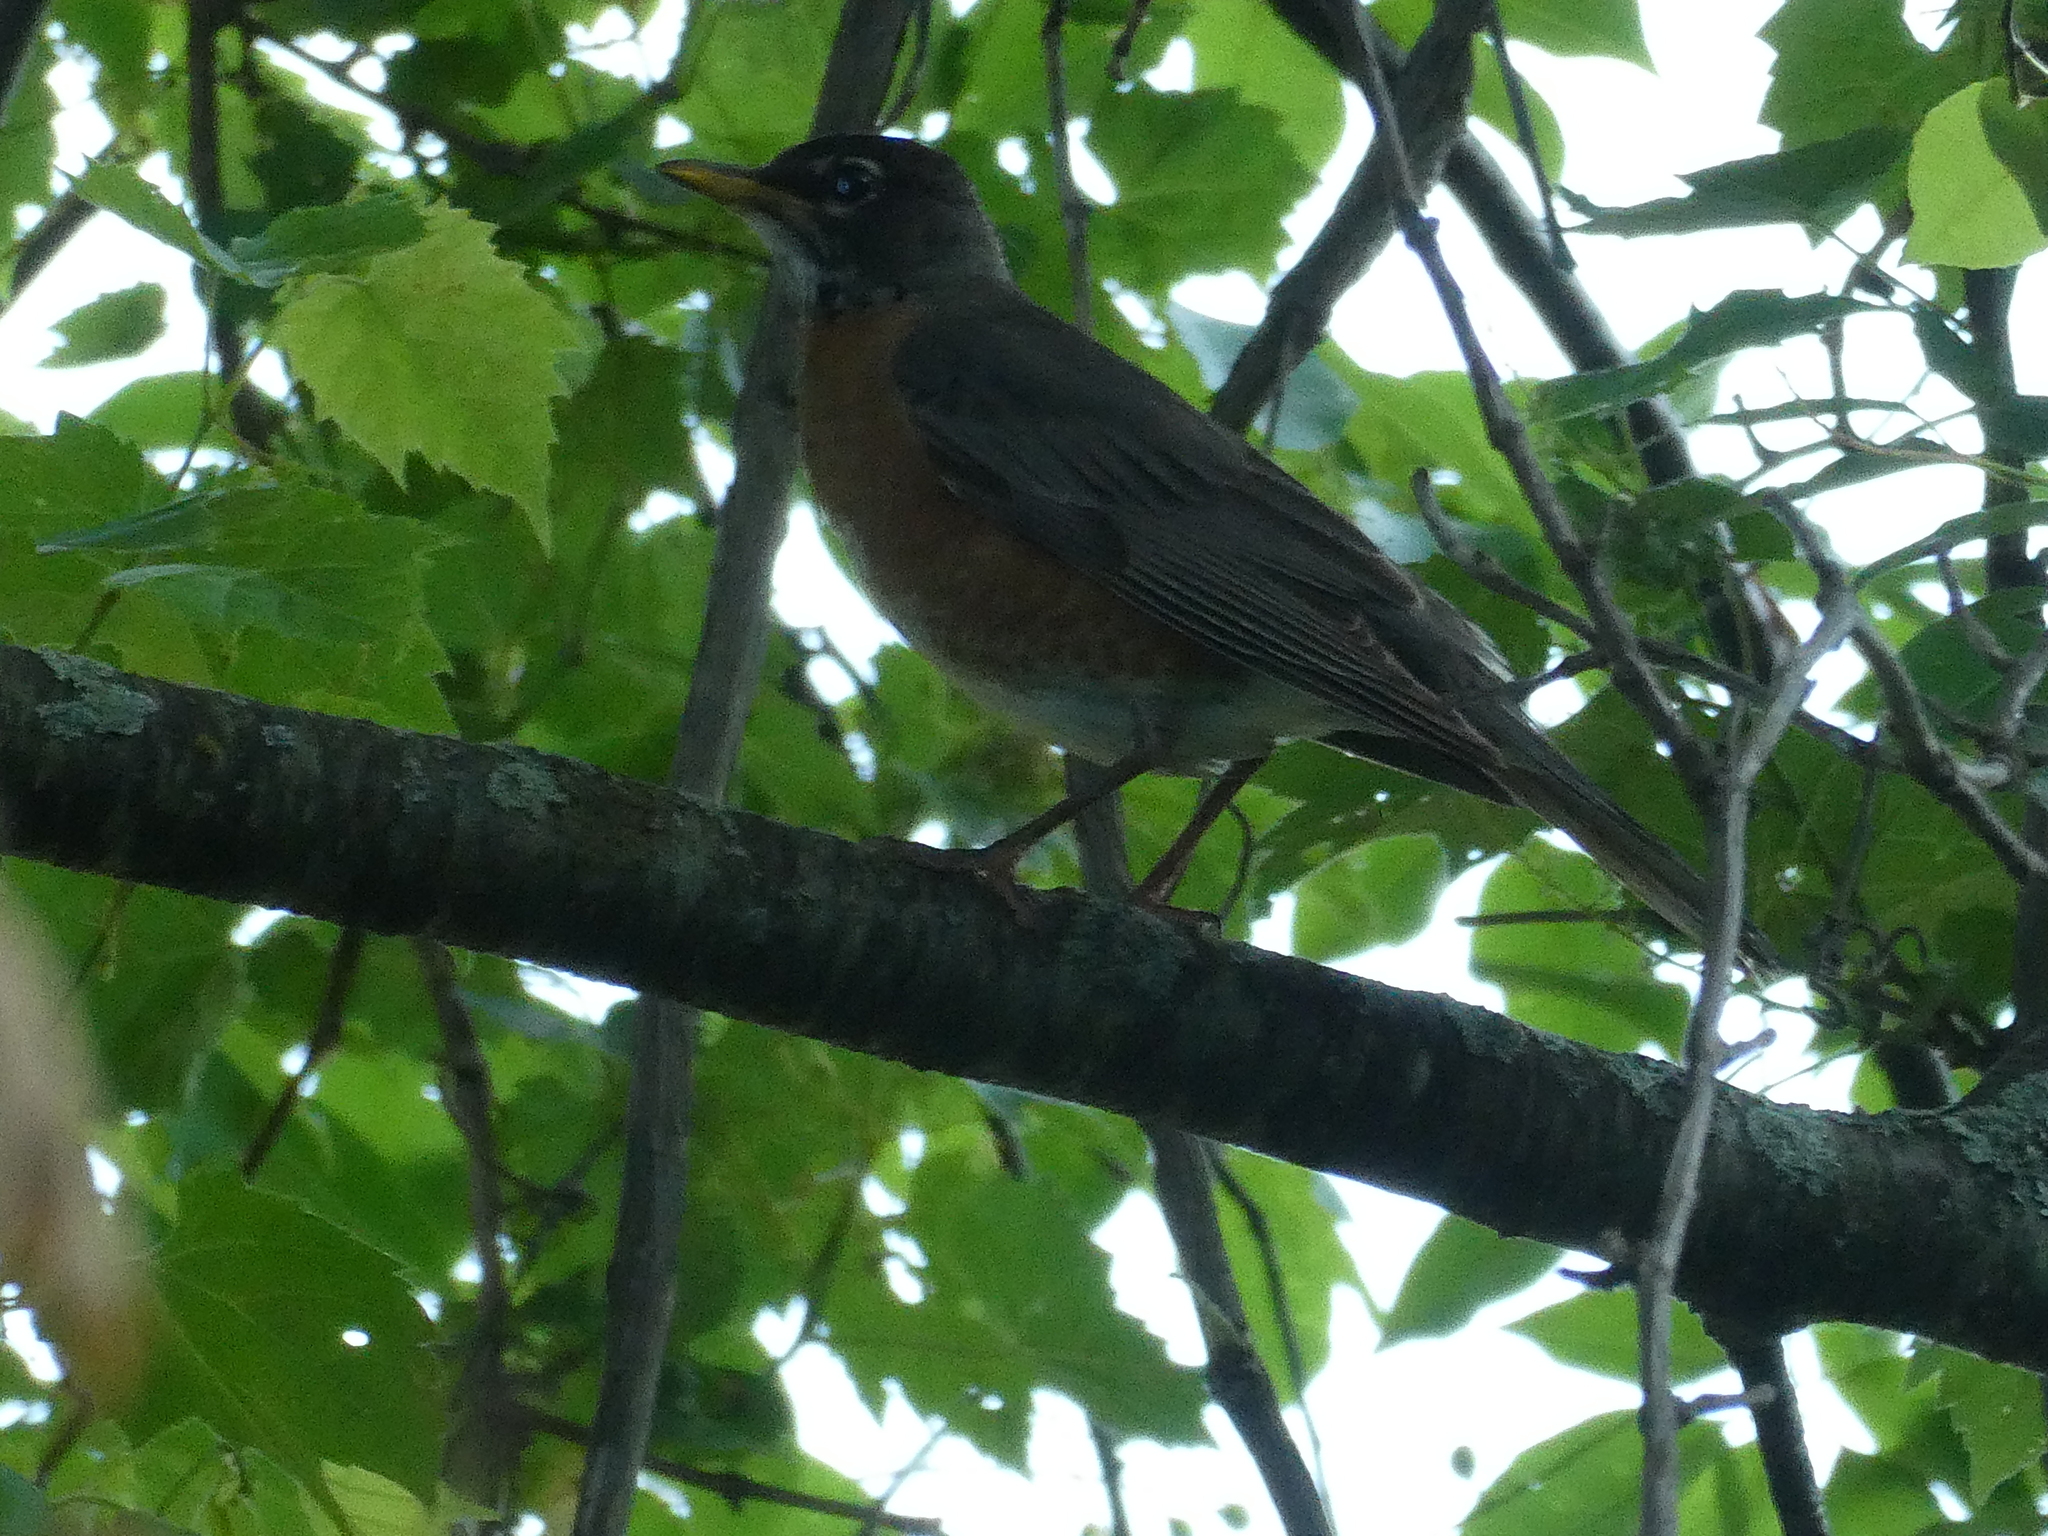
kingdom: Animalia
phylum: Chordata
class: Aves
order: Passeriformes
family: Turdidae
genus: Turdus
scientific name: Turdus migratorius
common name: American robin
